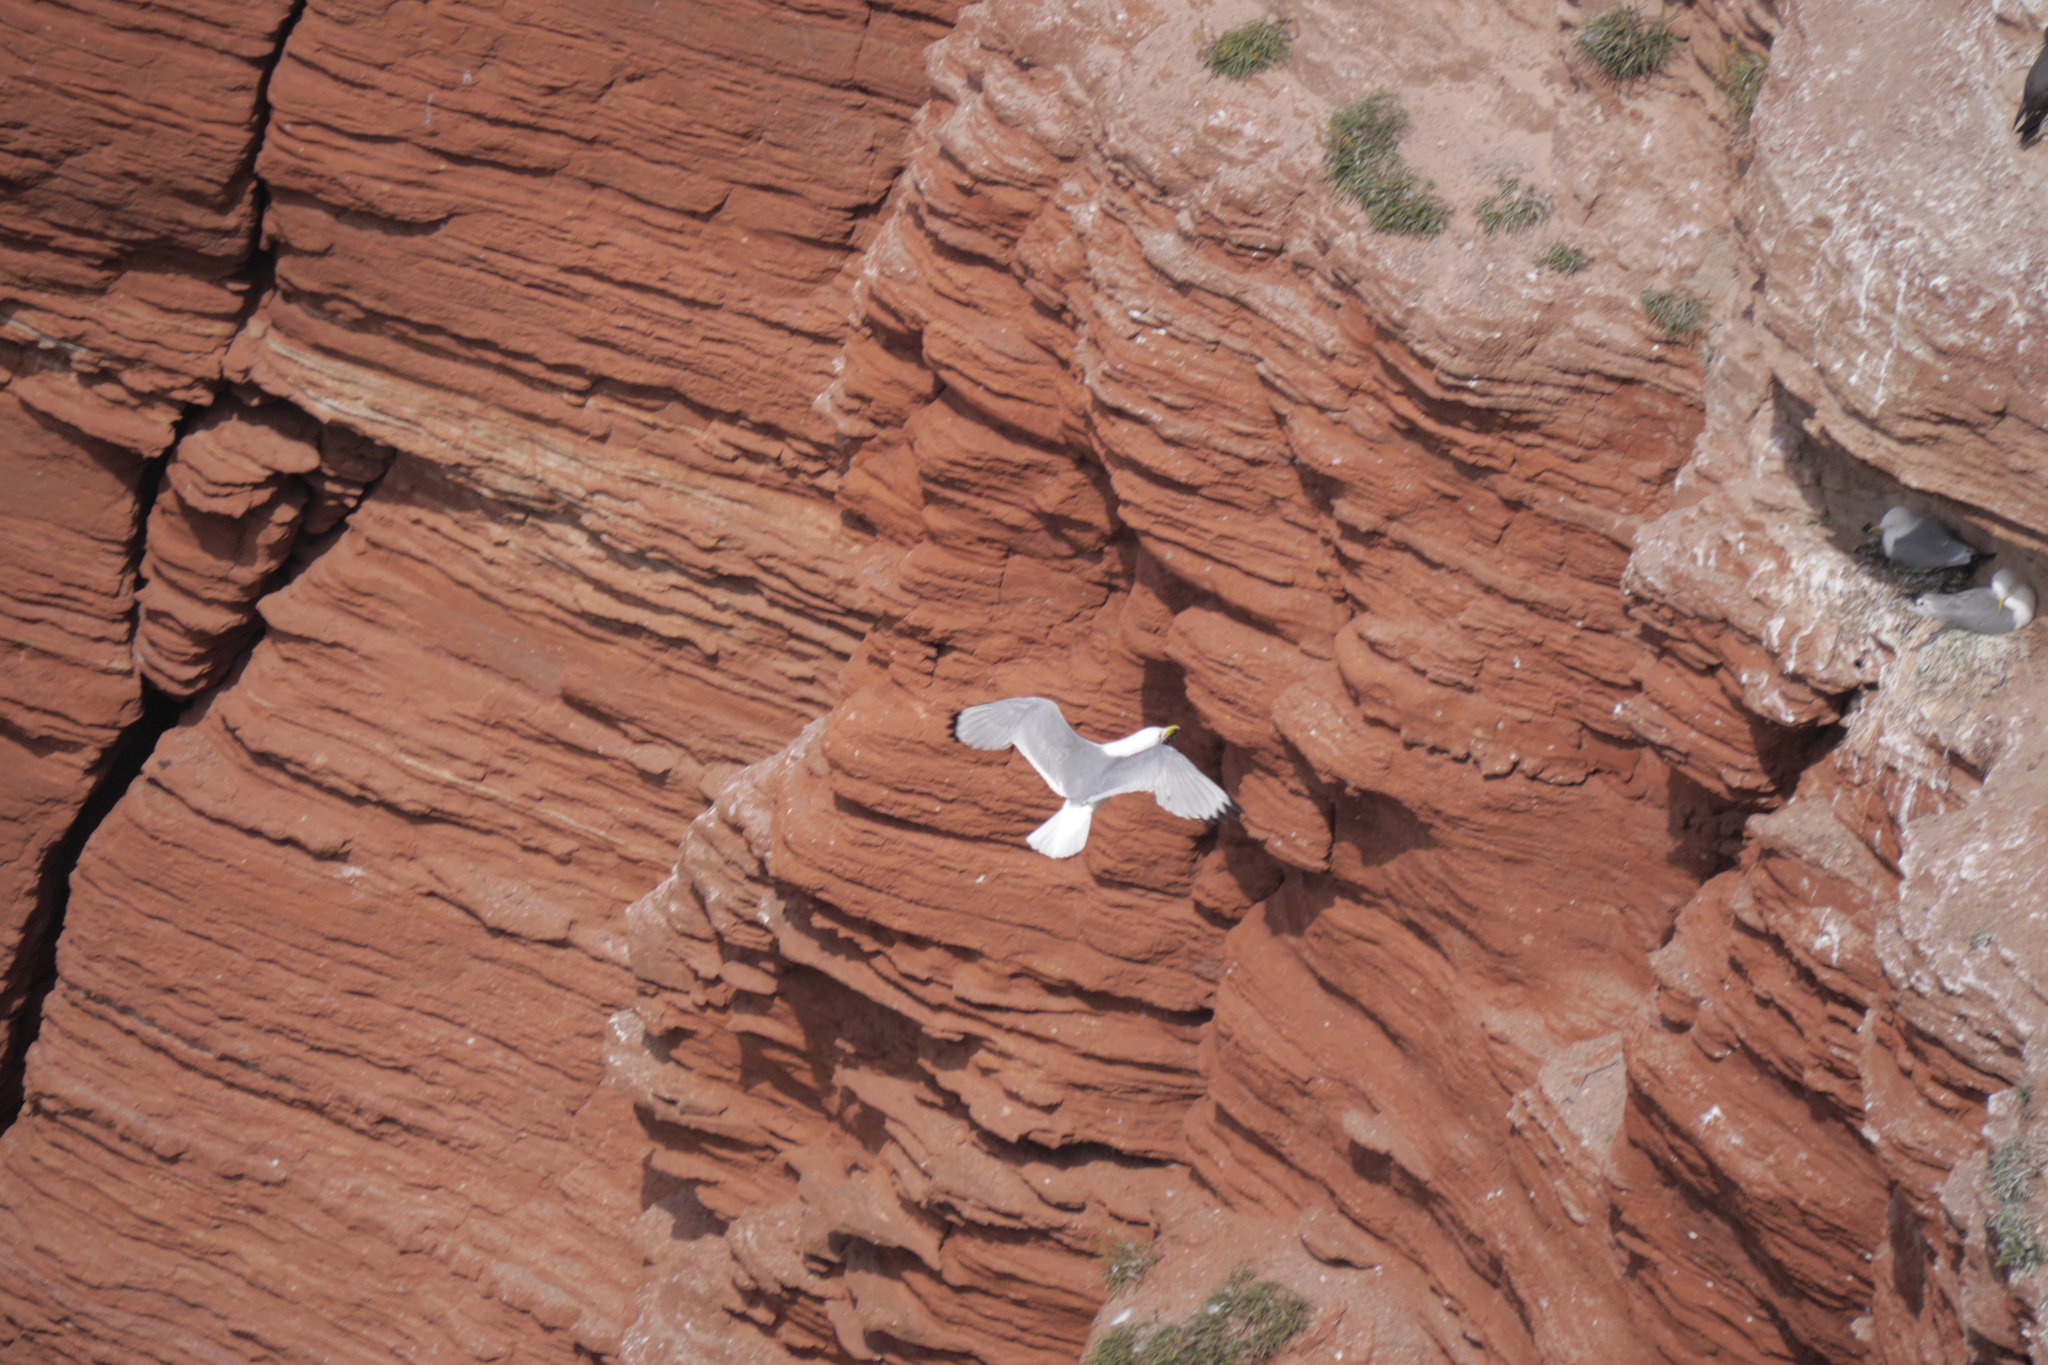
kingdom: Animalia
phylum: Chordata
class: Aves
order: Charadriiformes
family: Laridae
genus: Rissa
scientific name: Rissa tridactyla
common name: Black-legged kittiwake
